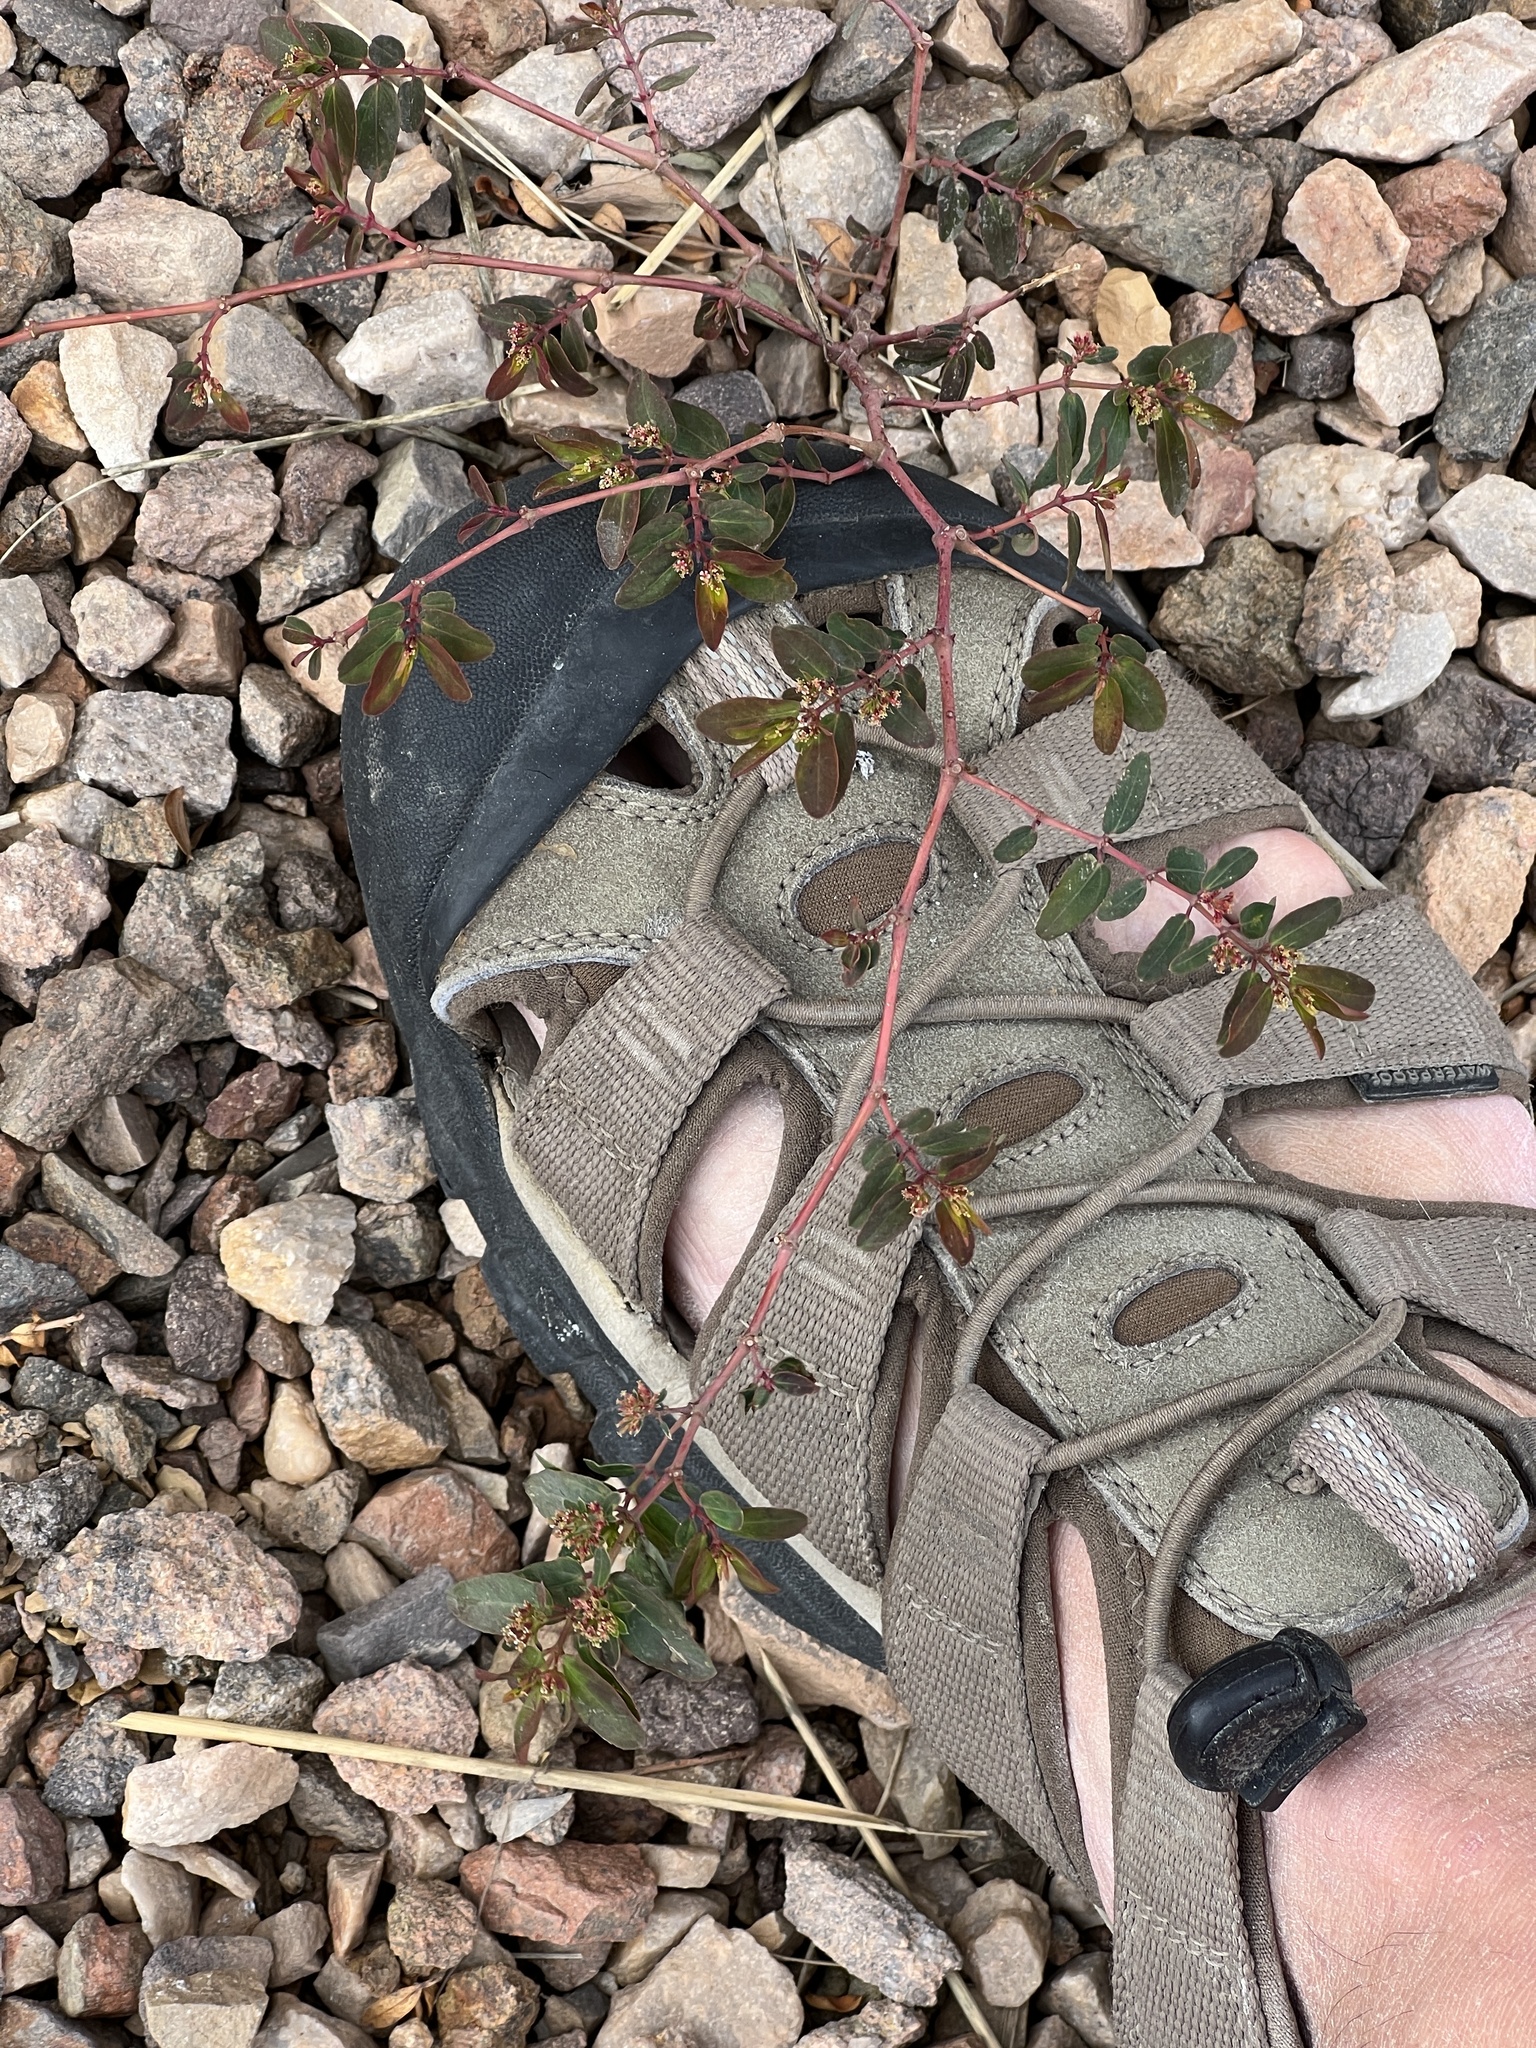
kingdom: Plantae
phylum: Tracheophyta
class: Magnoliopsida
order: Malpighiales
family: Euphorbiaceae
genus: Euphorbia
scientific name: Euphorbia hypericifolia
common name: Graceful sandmat
